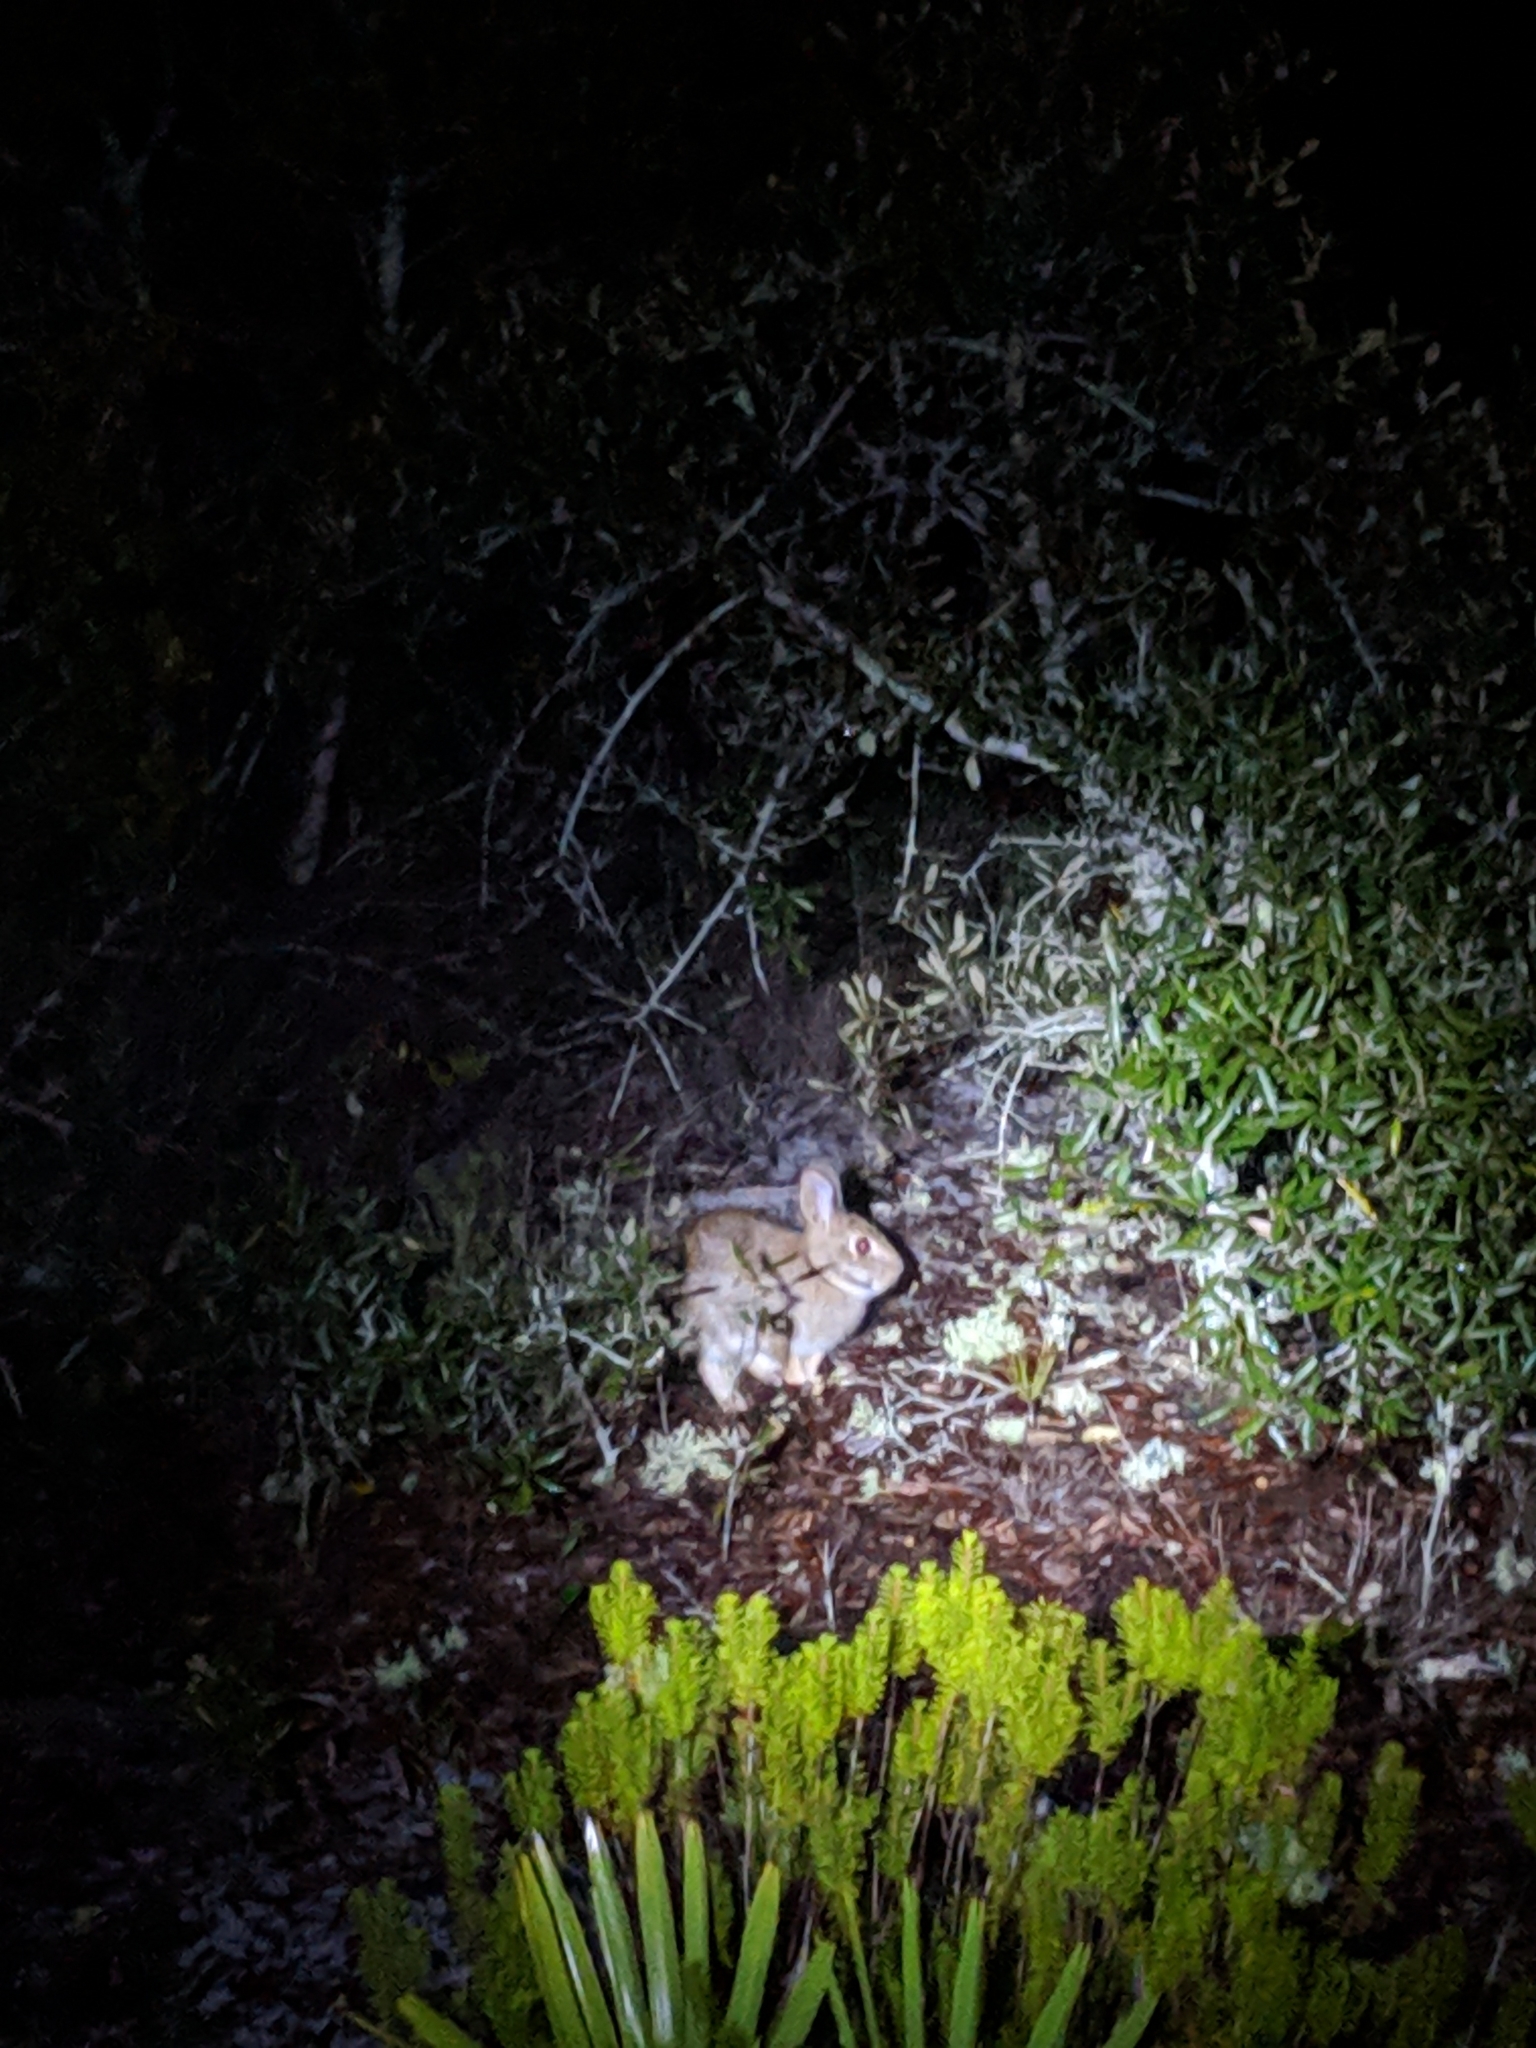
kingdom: Animalia
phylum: Chordata
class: Mammalia
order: Lagomorpha
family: Leporidae
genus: Sylvilagus
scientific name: Sylvilagus floridanus
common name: Eastern cottontail
